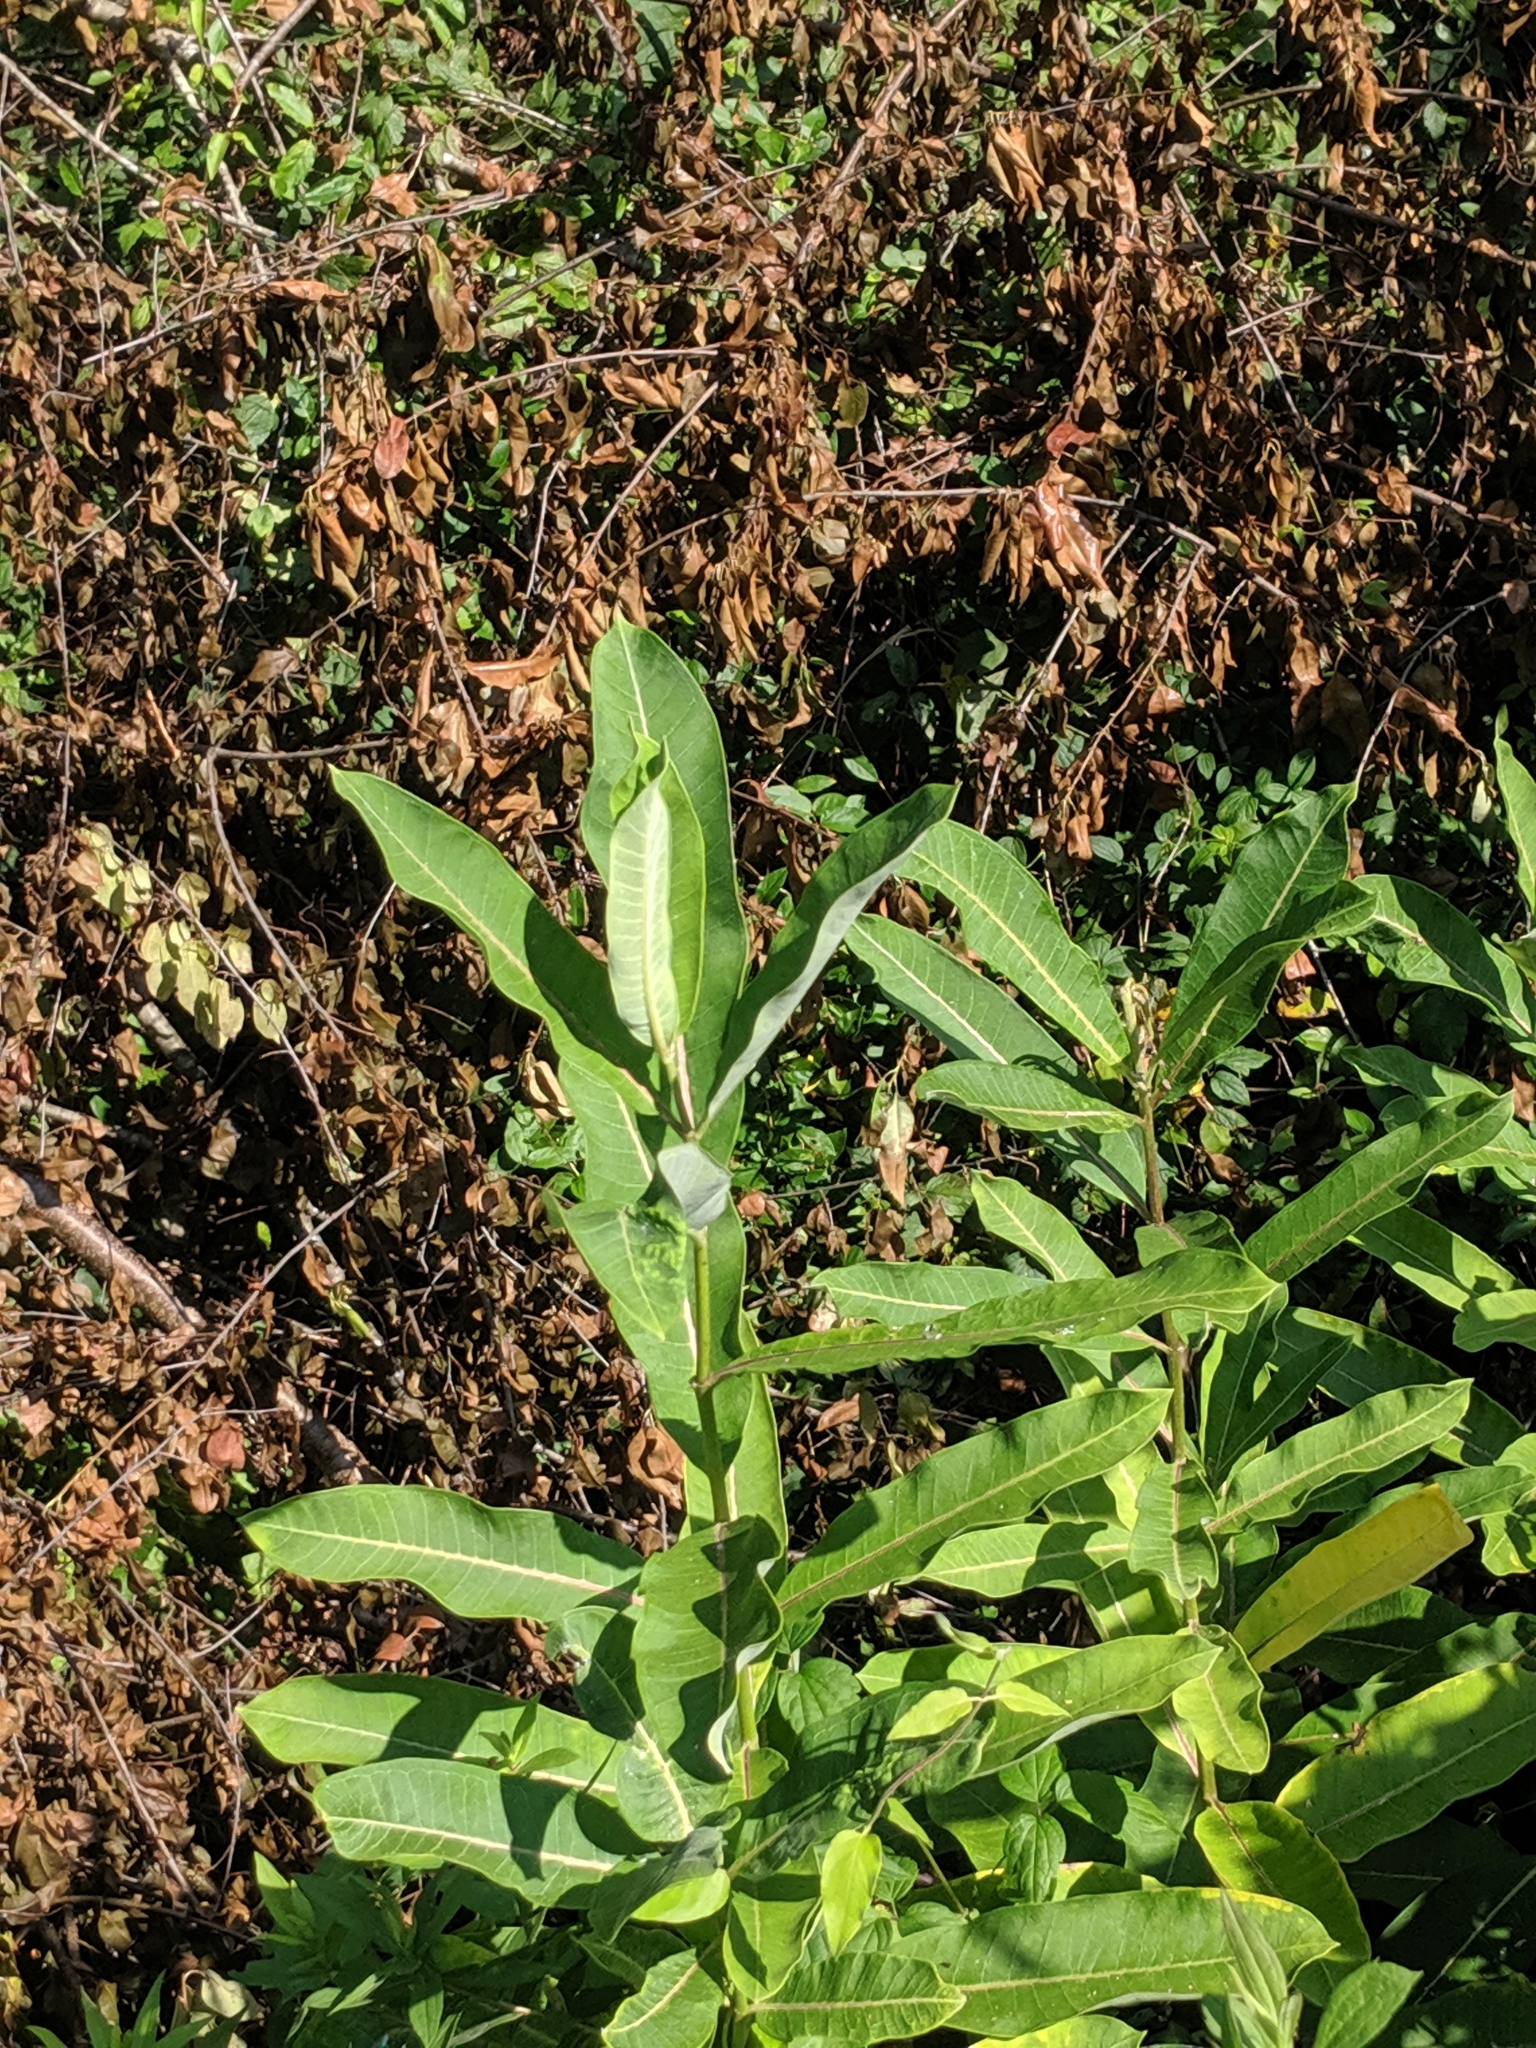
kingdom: Plantae
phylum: Tracheophyta
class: Magnoliopsida
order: Gentianales
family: Apocynaceae
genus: Asclepias
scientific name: Asclepias syriaca
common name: Common milkweed
